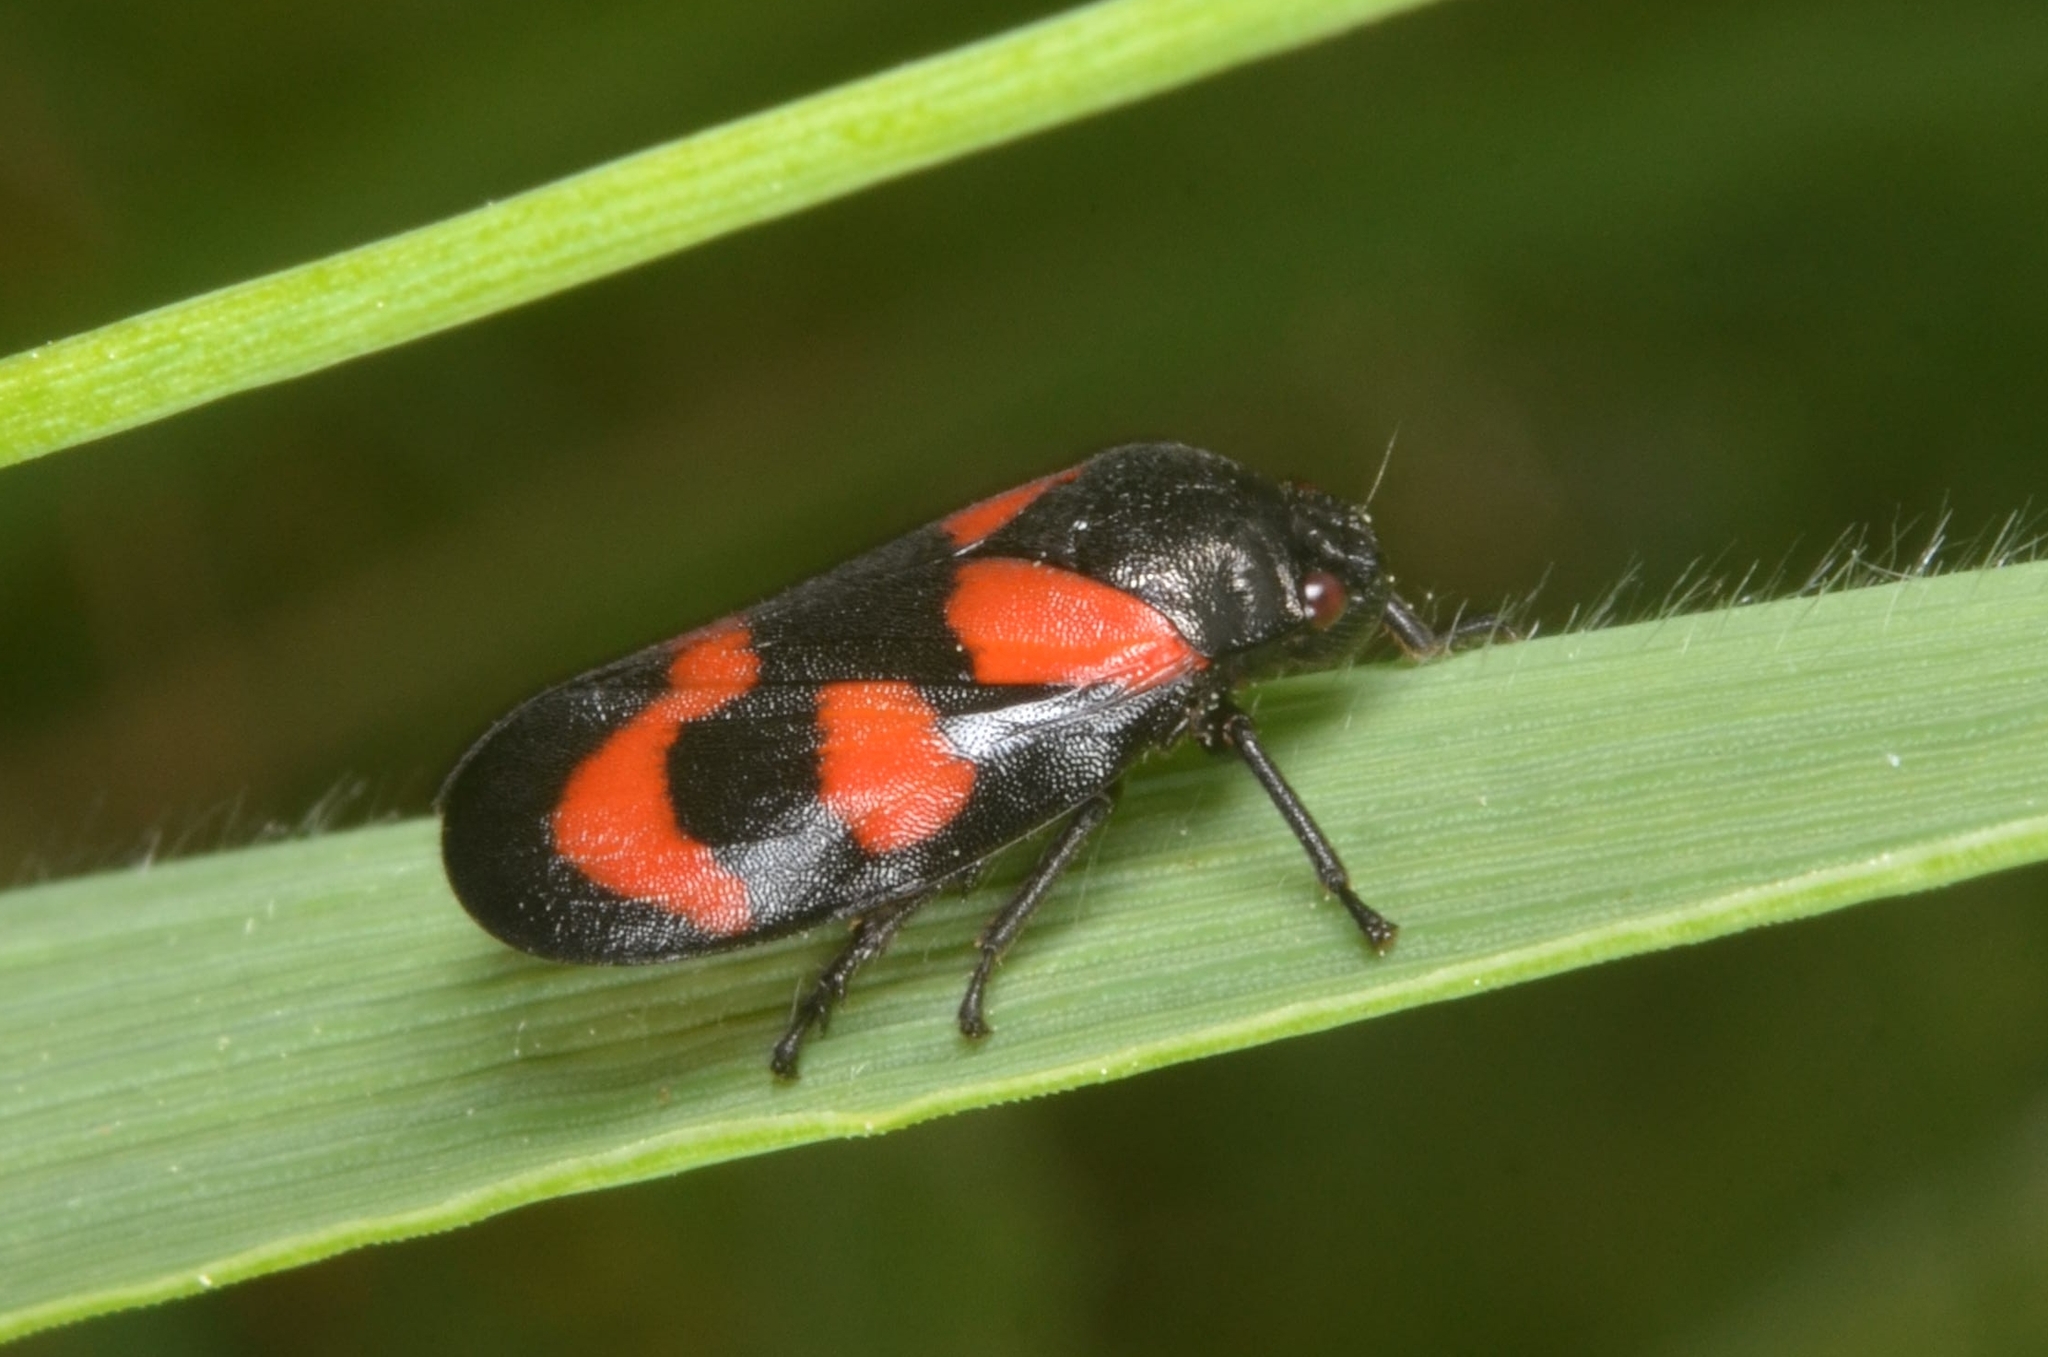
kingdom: Animalia
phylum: Arthropoda
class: Insecta
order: Hemiptera
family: Cercopidae
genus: Cercopis
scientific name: Cercopis vulnerata
